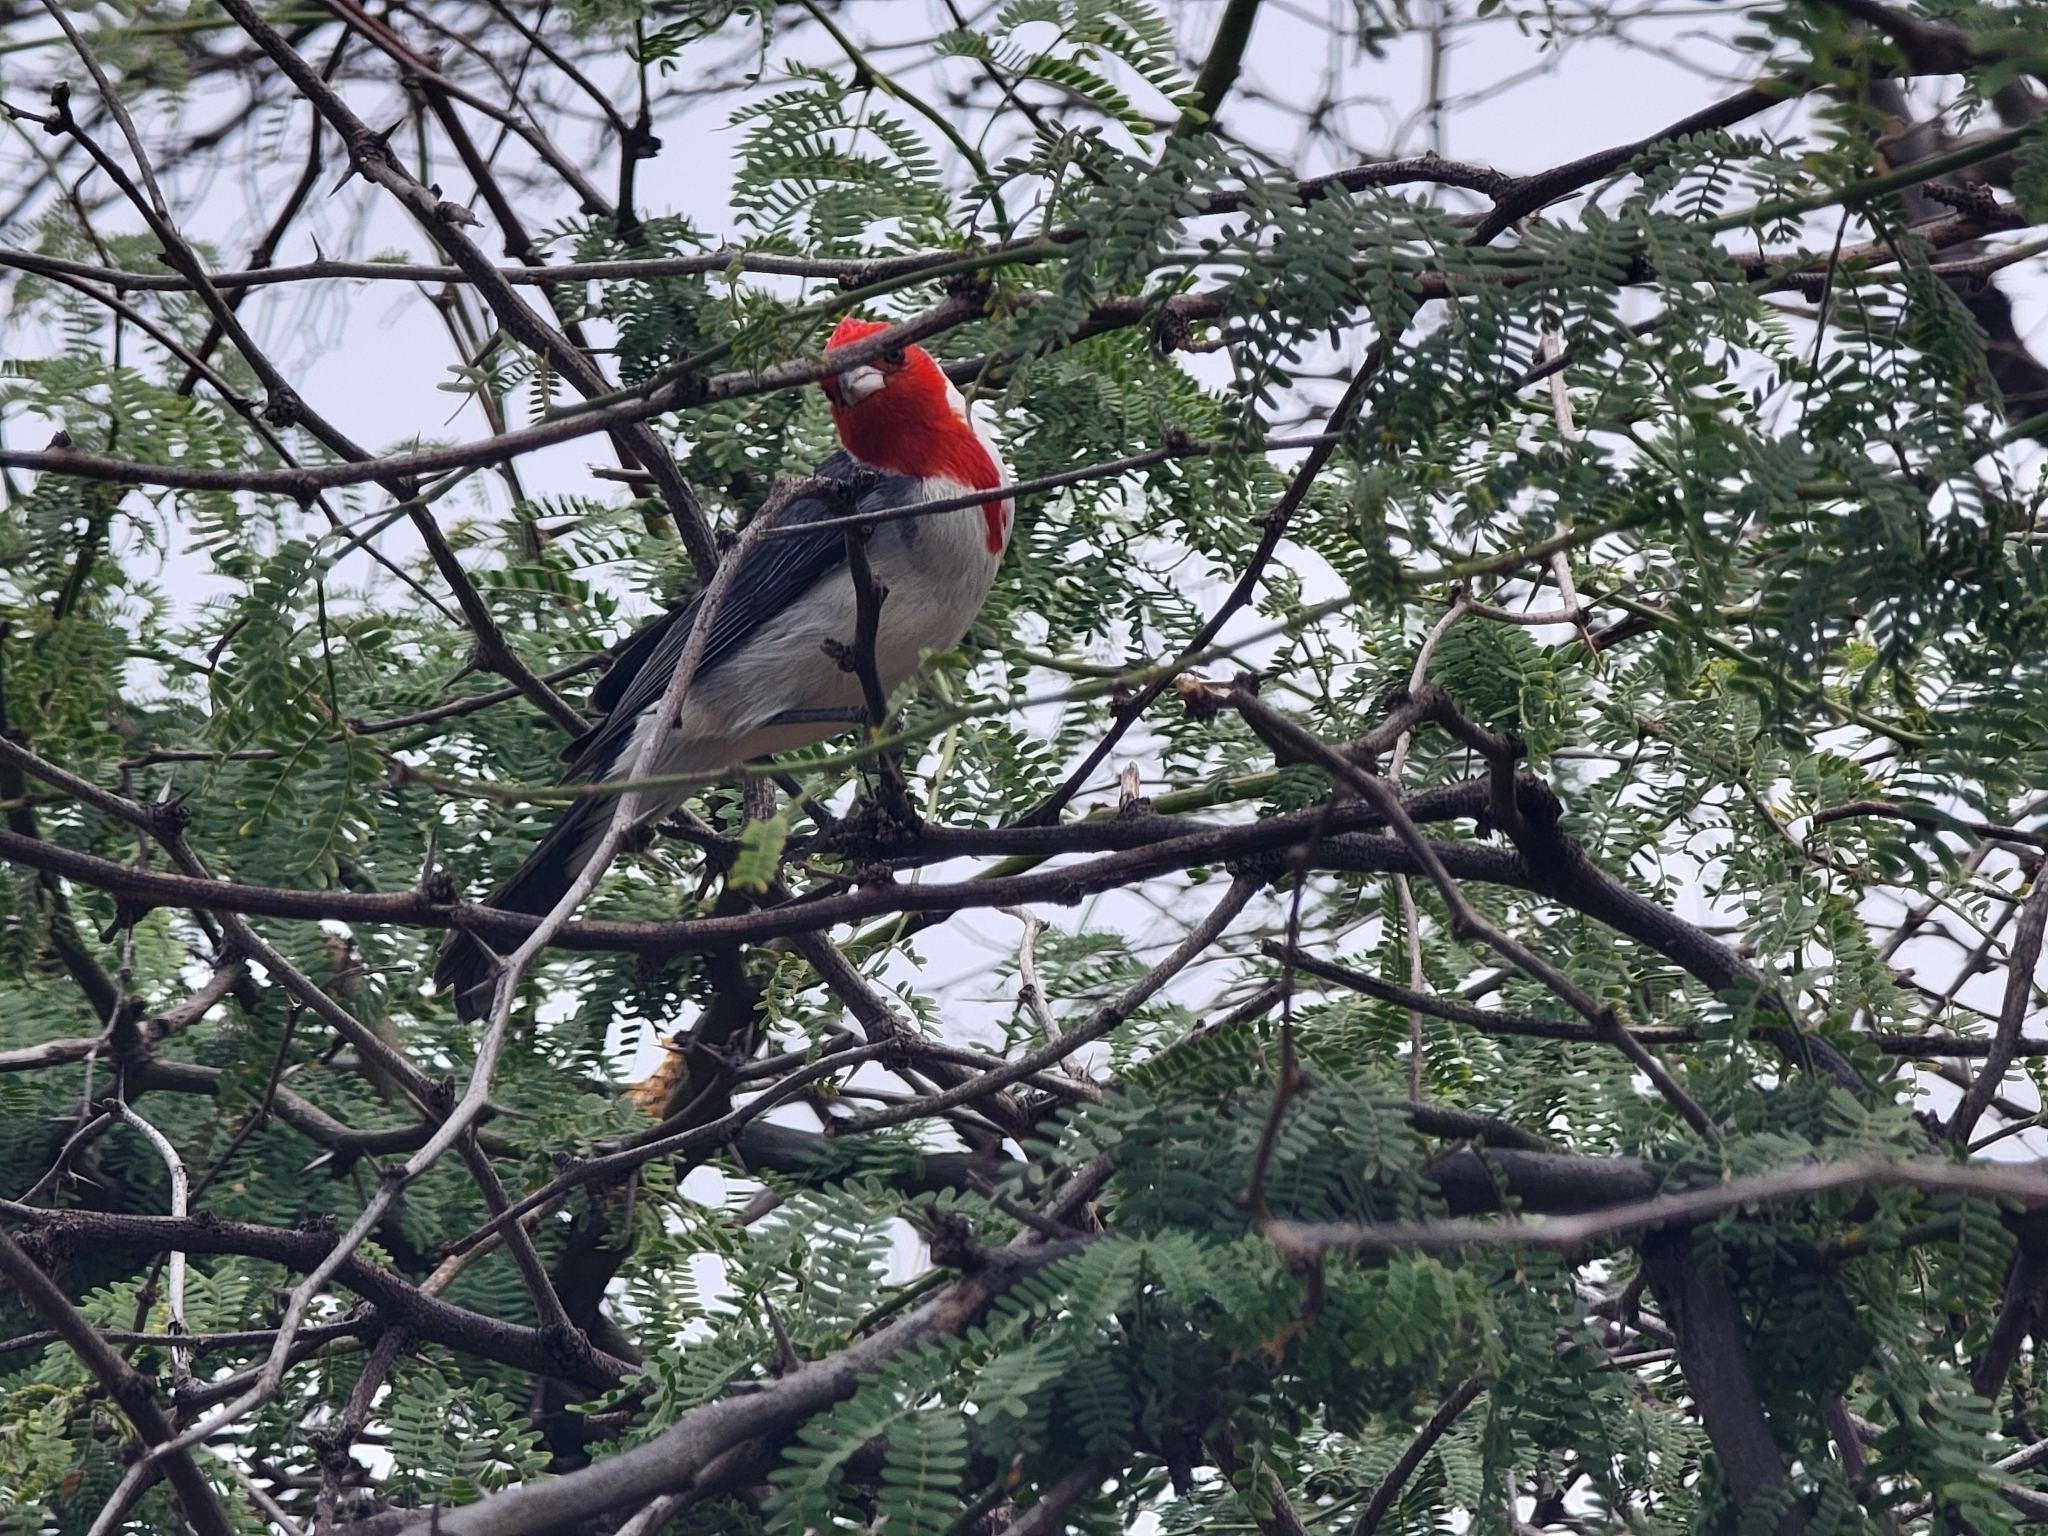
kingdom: Animalia
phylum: Chordata
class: Aves
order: Passeriformes
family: Thraupidae
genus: Paroaria
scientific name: Paroaria coronata
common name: Red-crested cardinal
